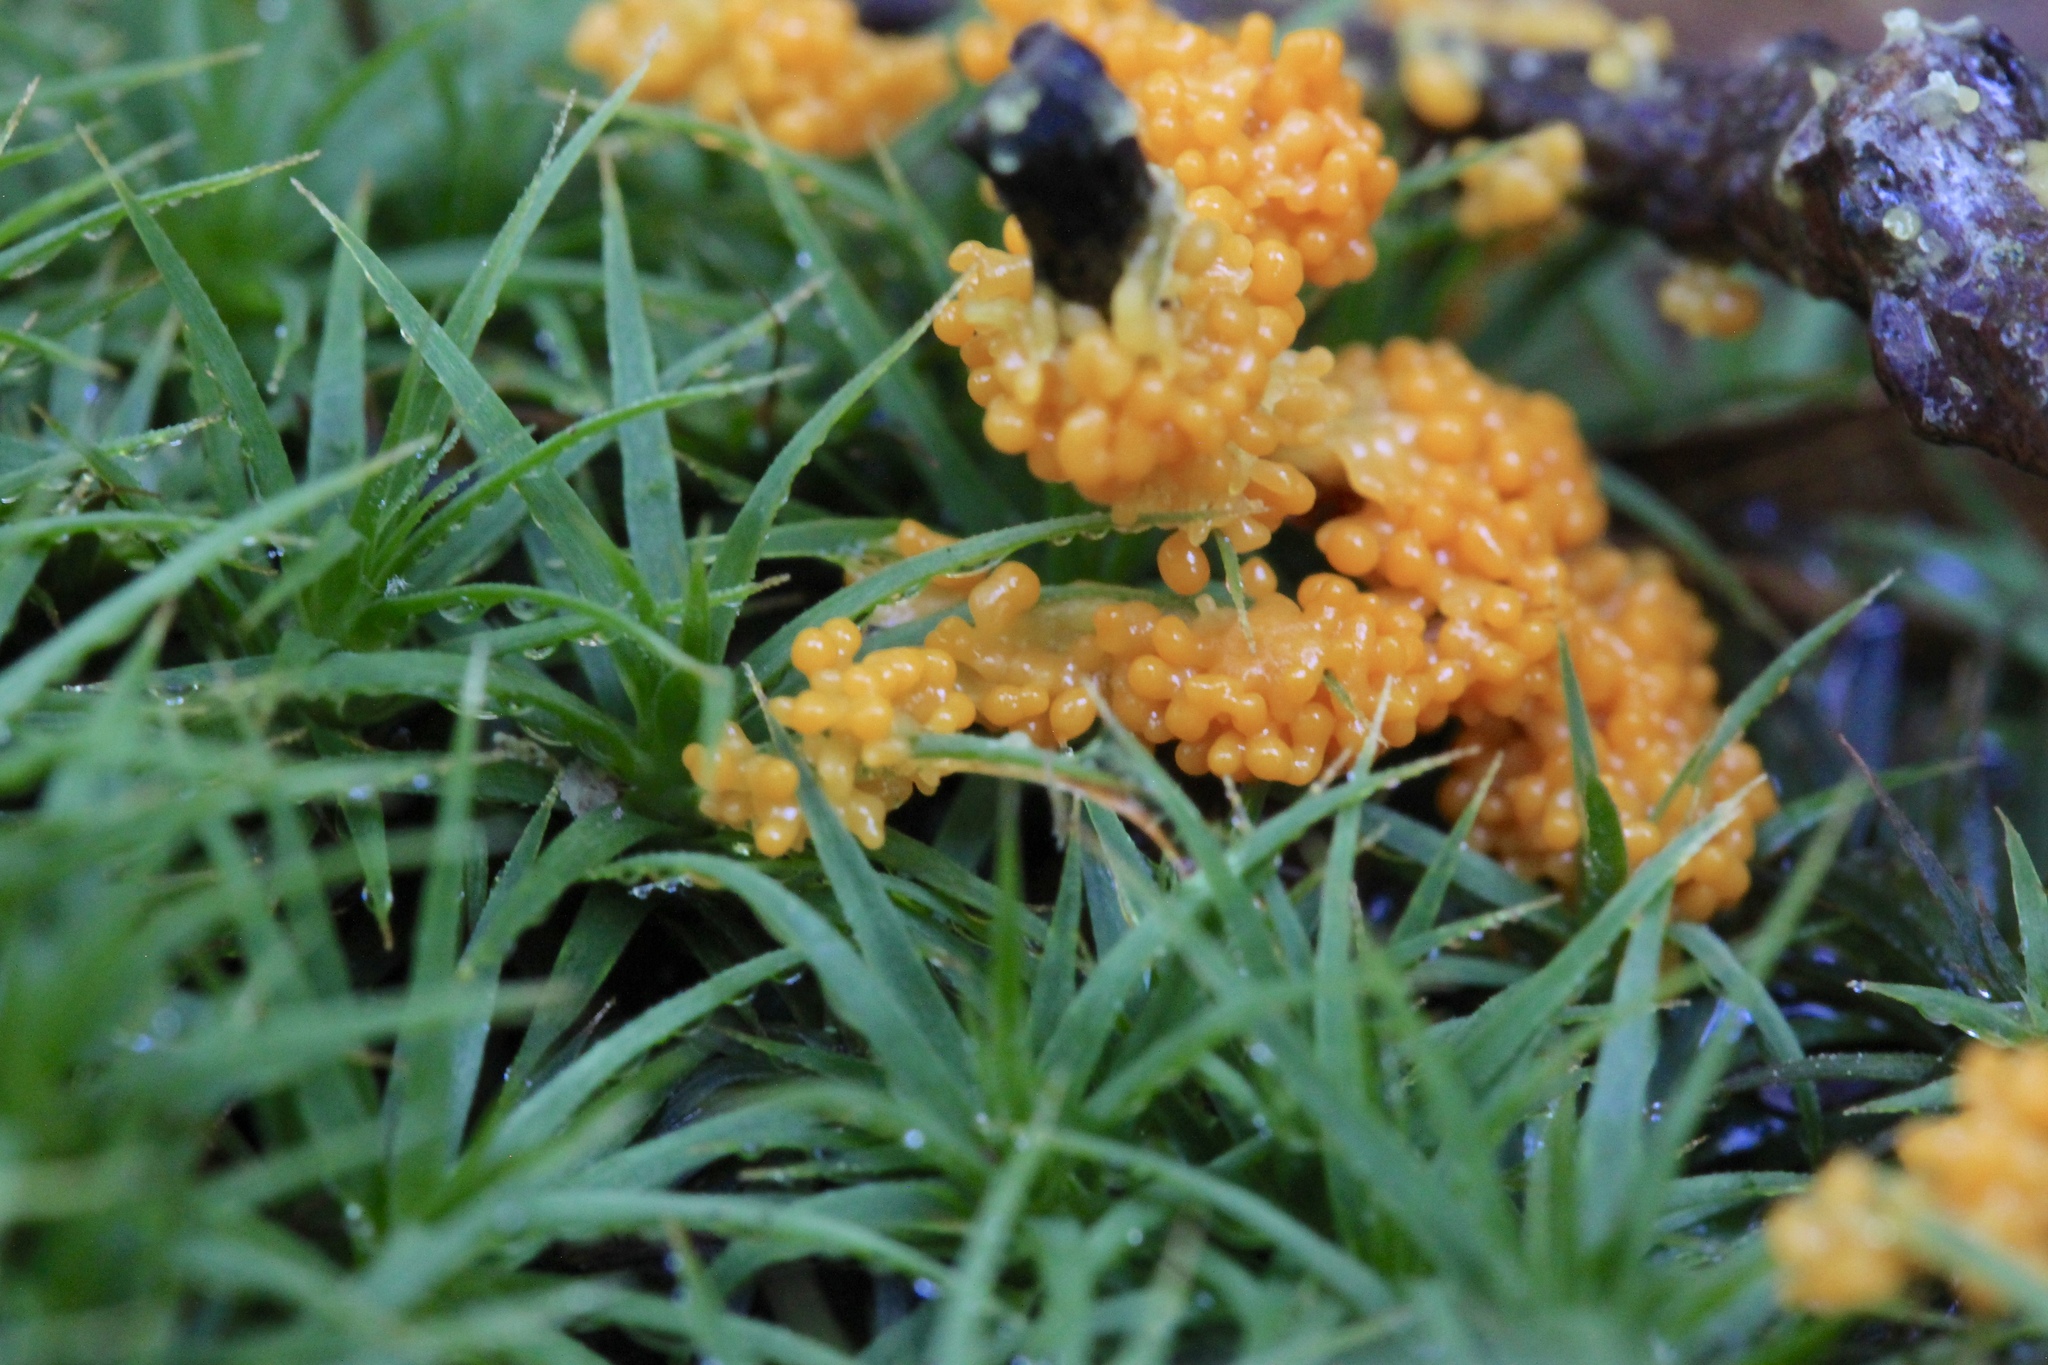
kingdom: Protozoa
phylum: Mycetozoa
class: Myxomycetes
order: Physarales
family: Physaraceae
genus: Leocarpus
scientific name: Leocarpus fragilis
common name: Insect-egg slime
